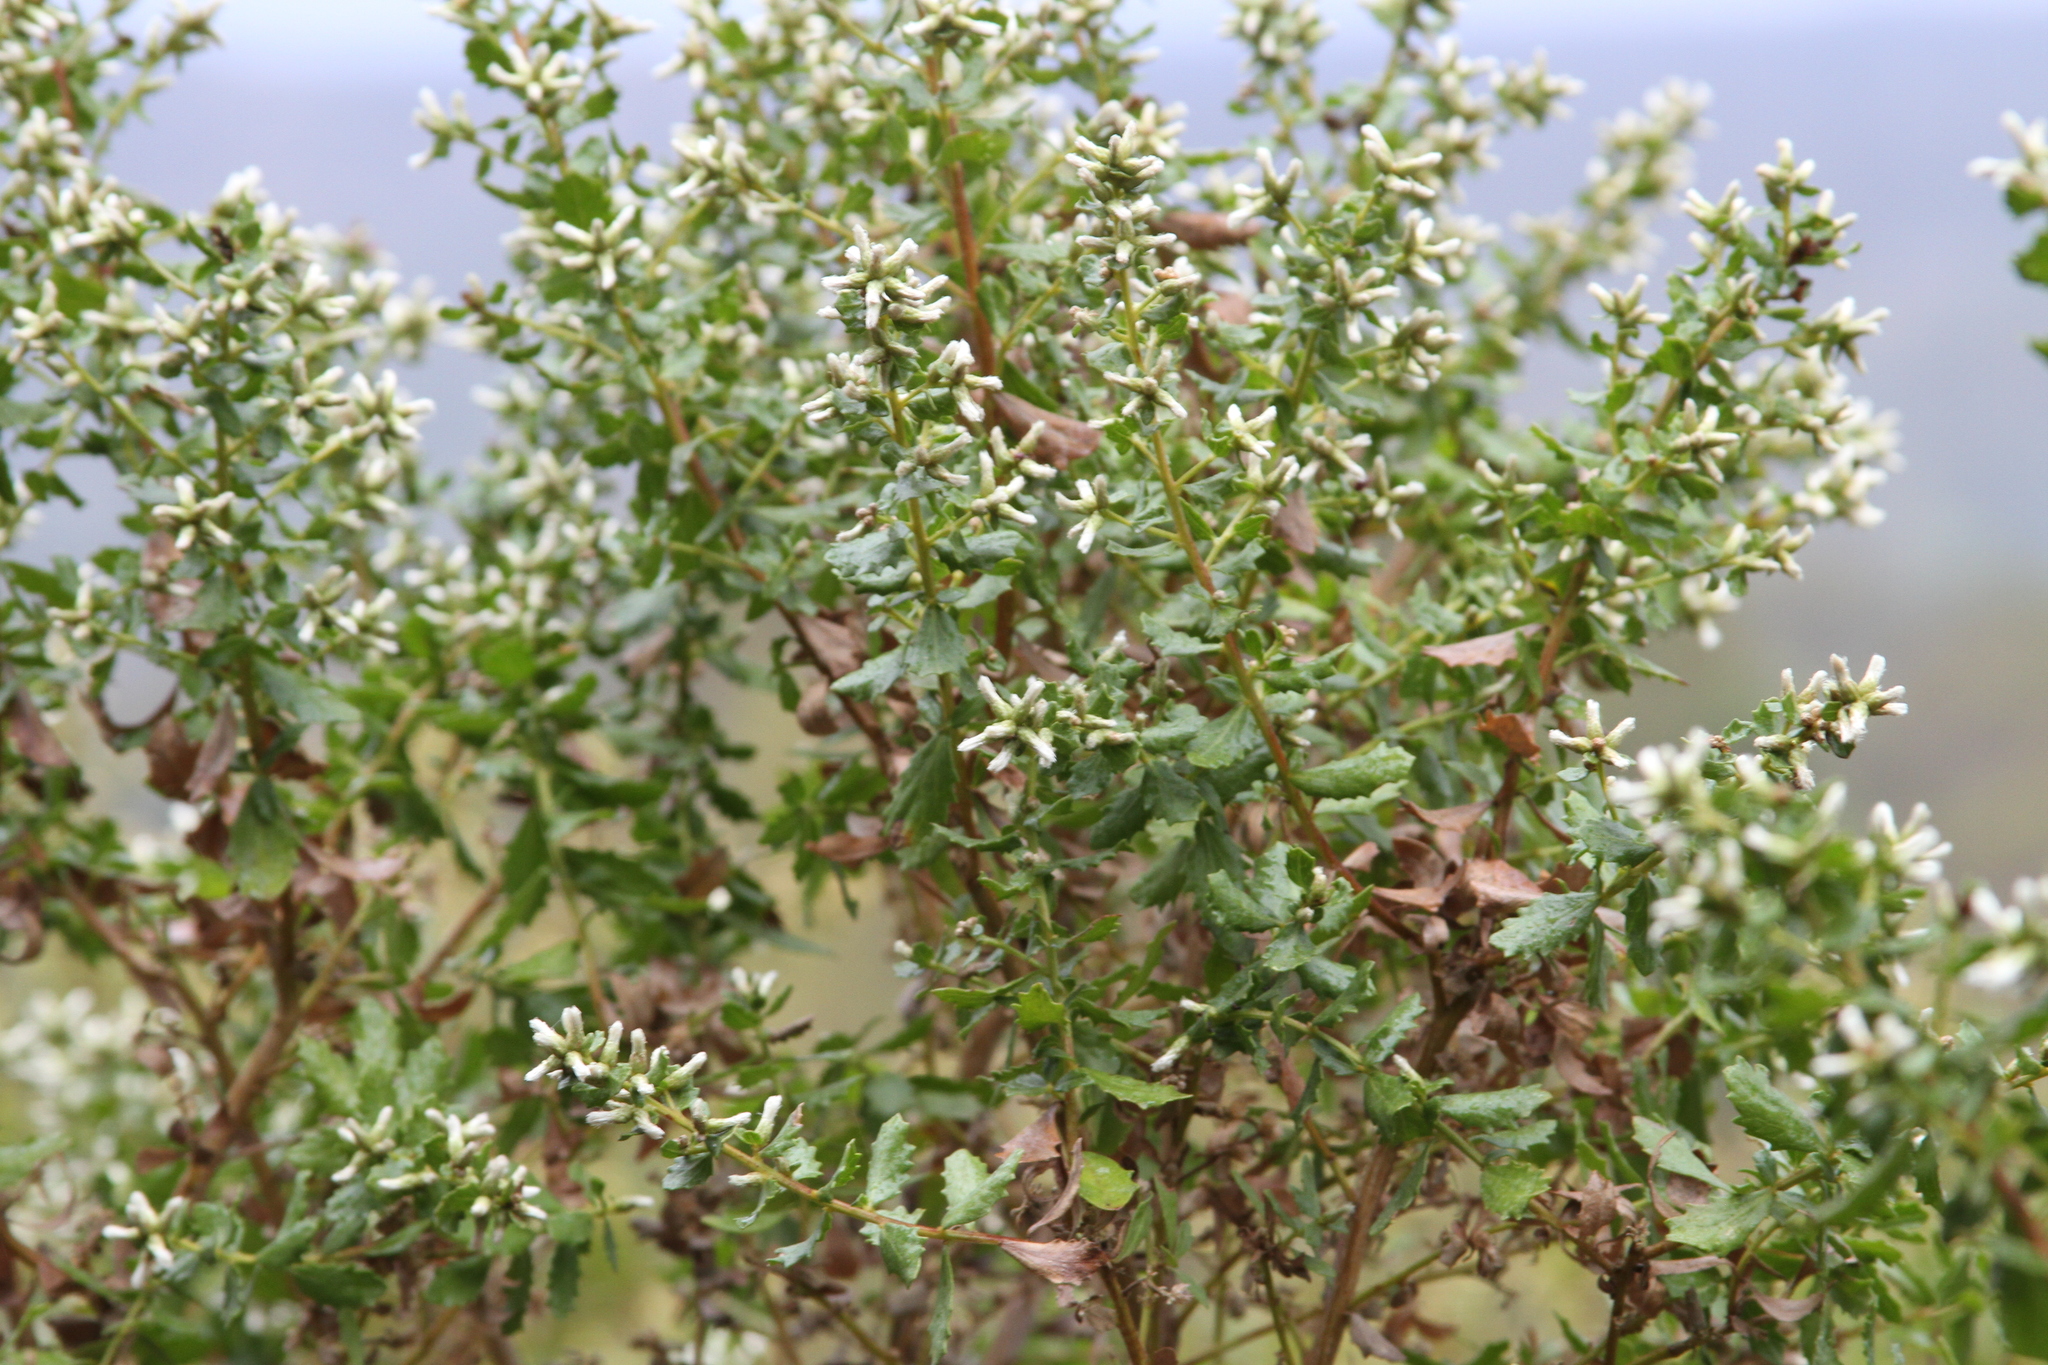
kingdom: Plantae
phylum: Tracheophyta
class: Magnoliopsida
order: Asterales
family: Asteraceae
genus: Baccharis
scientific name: Baccharis pilularis
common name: Coyotebrush
